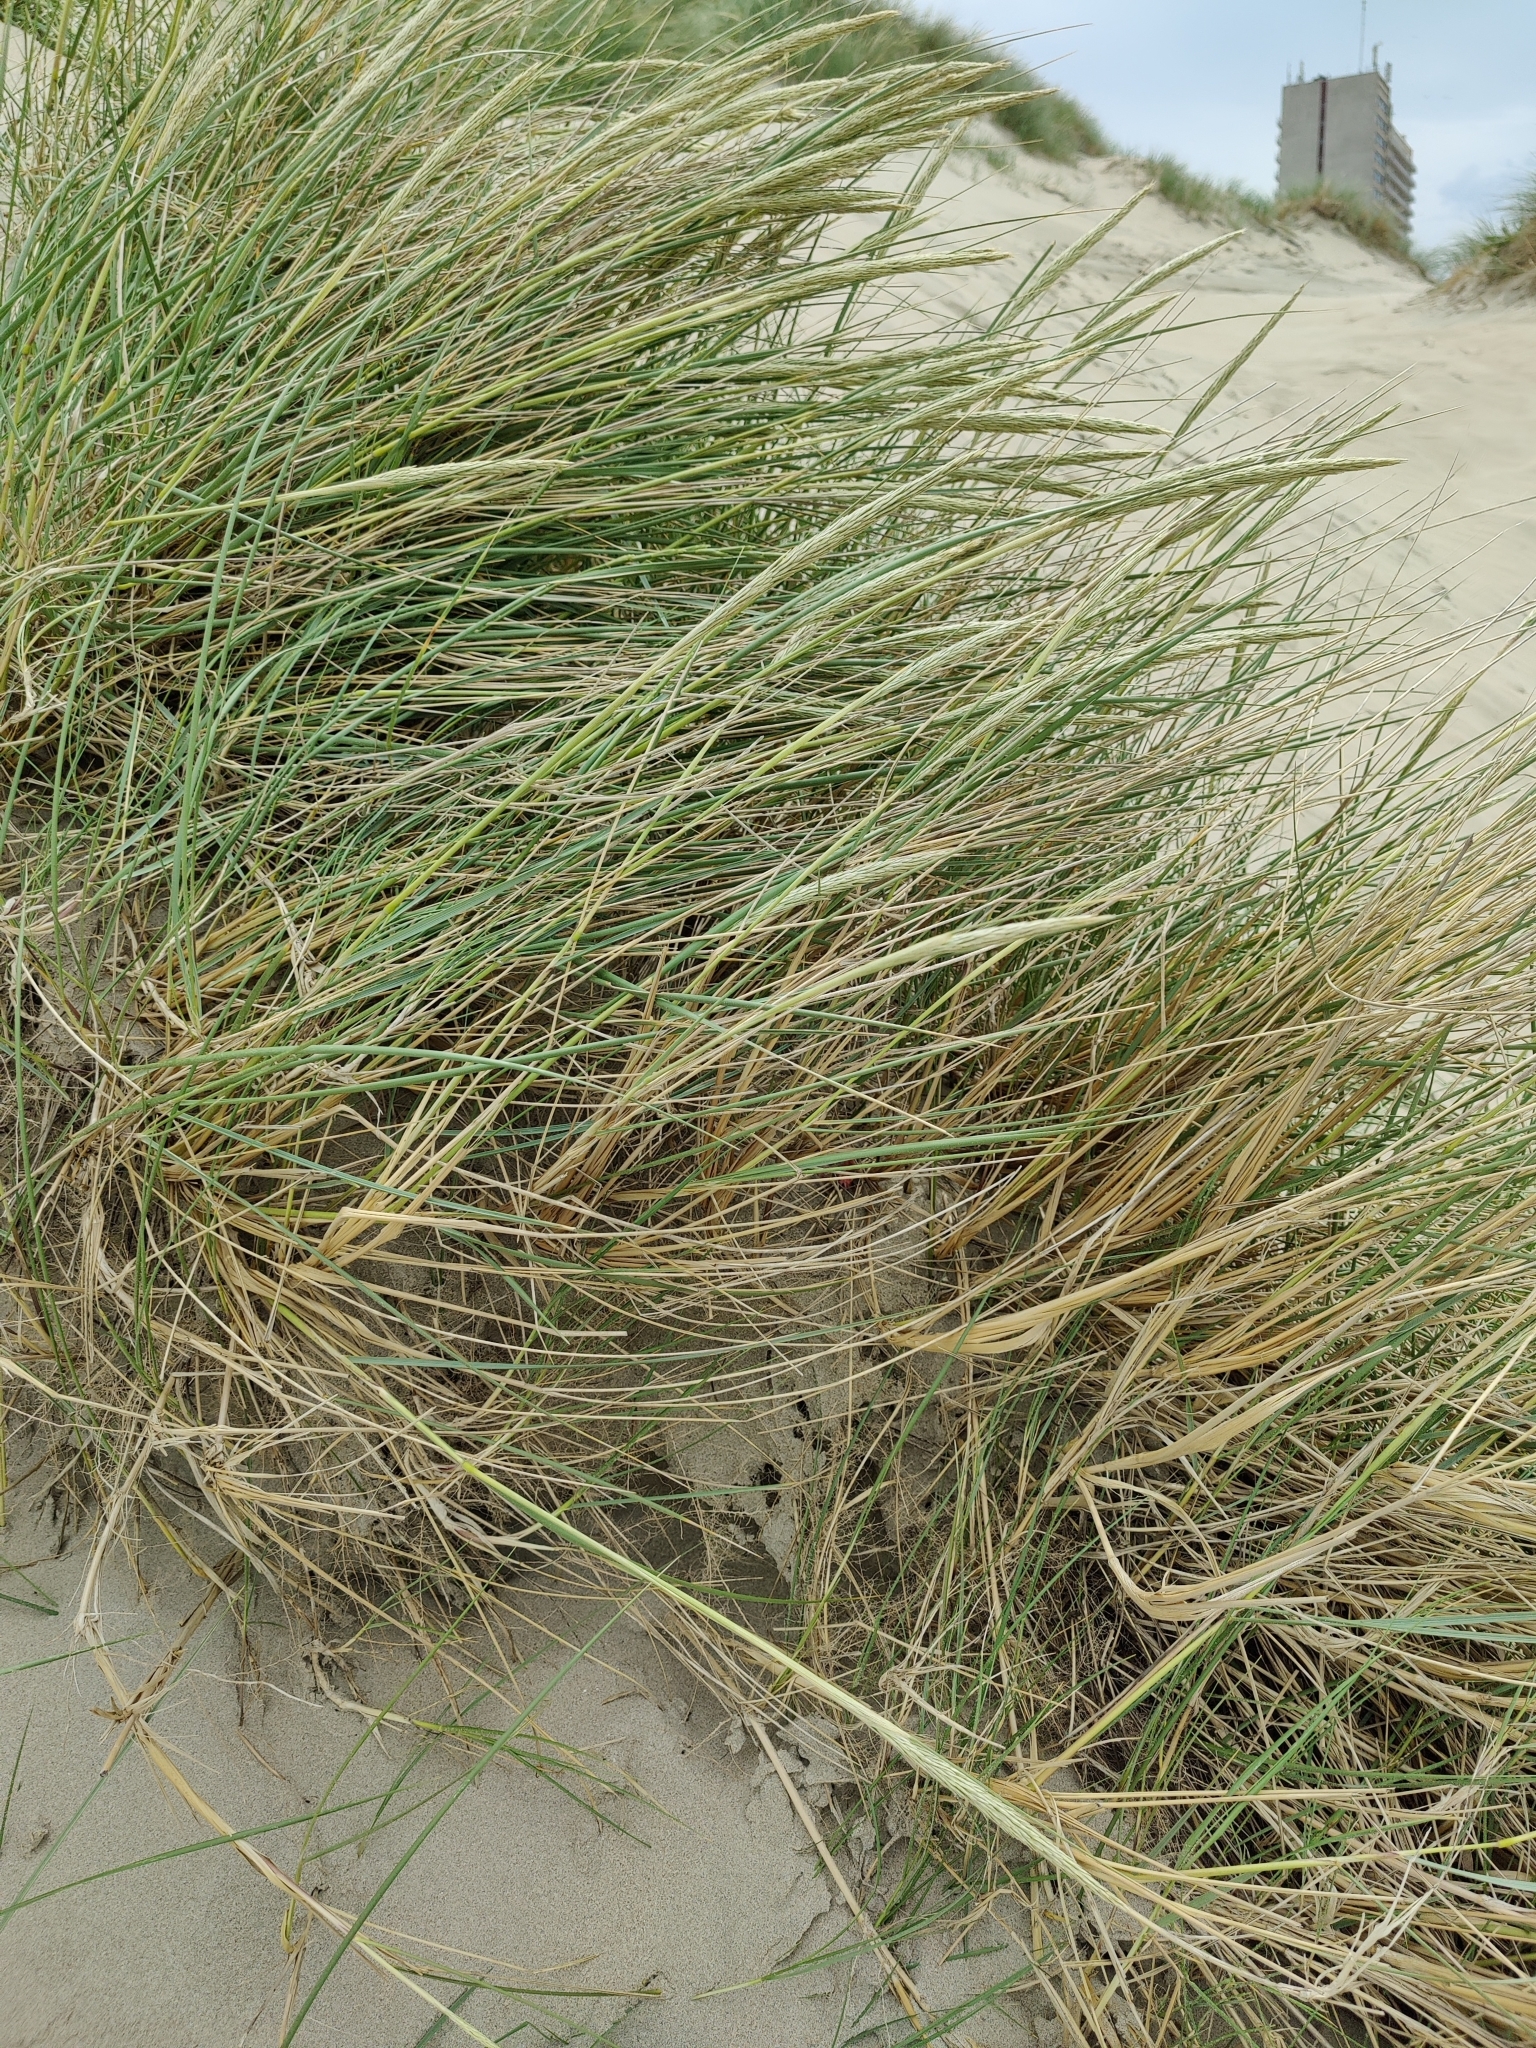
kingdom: Plantae
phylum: Tracheophyta
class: Liliopsida
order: Poales
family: Poaceae
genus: Calamagrostis
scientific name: Calamagrostis arenaria
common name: European beachgrass
